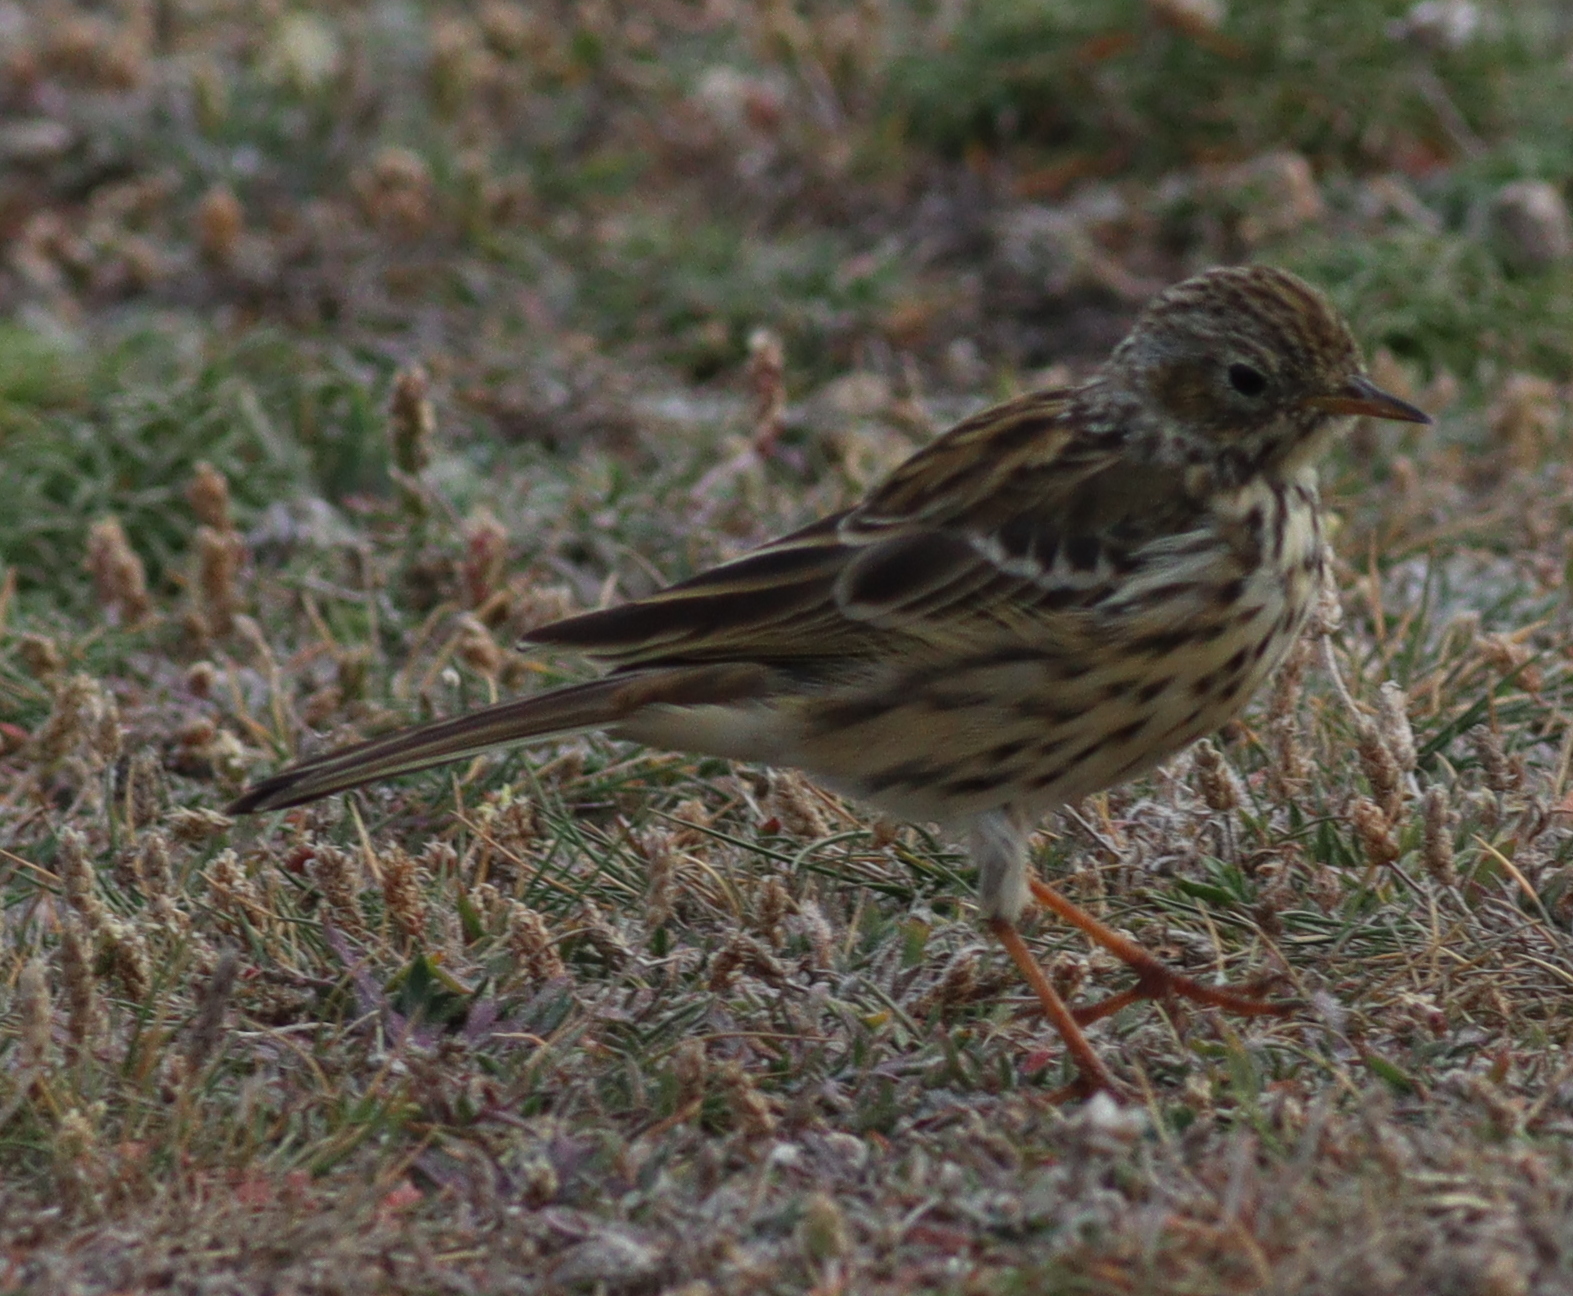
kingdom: Animalia
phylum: Chordata
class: Aves
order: Passeriformes
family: Motacillidae
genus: Anthus
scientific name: Anthus pratensis
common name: Meadow pipit
